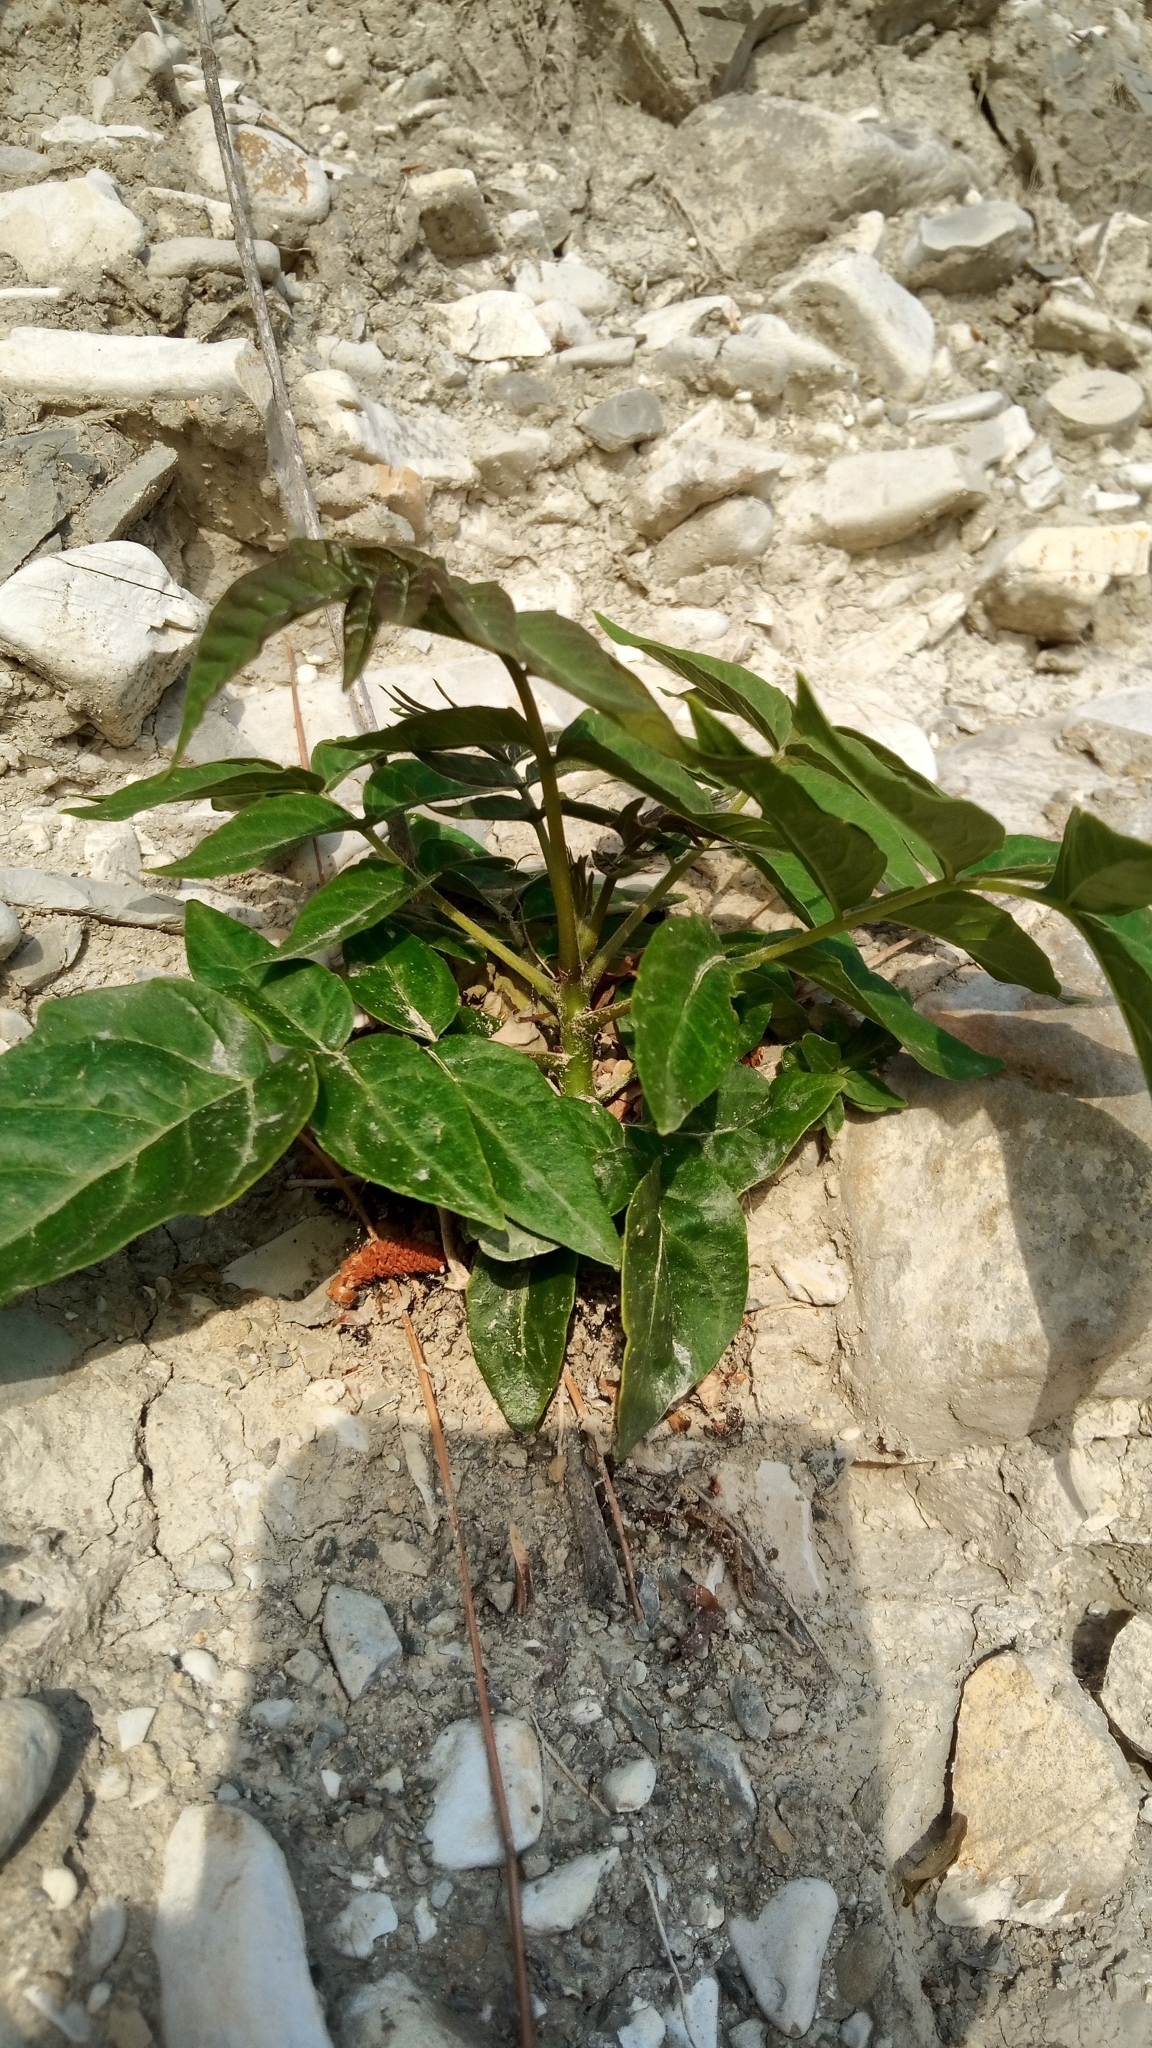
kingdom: Plantae
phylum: Tracheophyta
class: Magnoliopsida
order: Sapindales
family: Simaroubaceae
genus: Ailanthus
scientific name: Ailanthus altissima
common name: Tree-of-heaven
